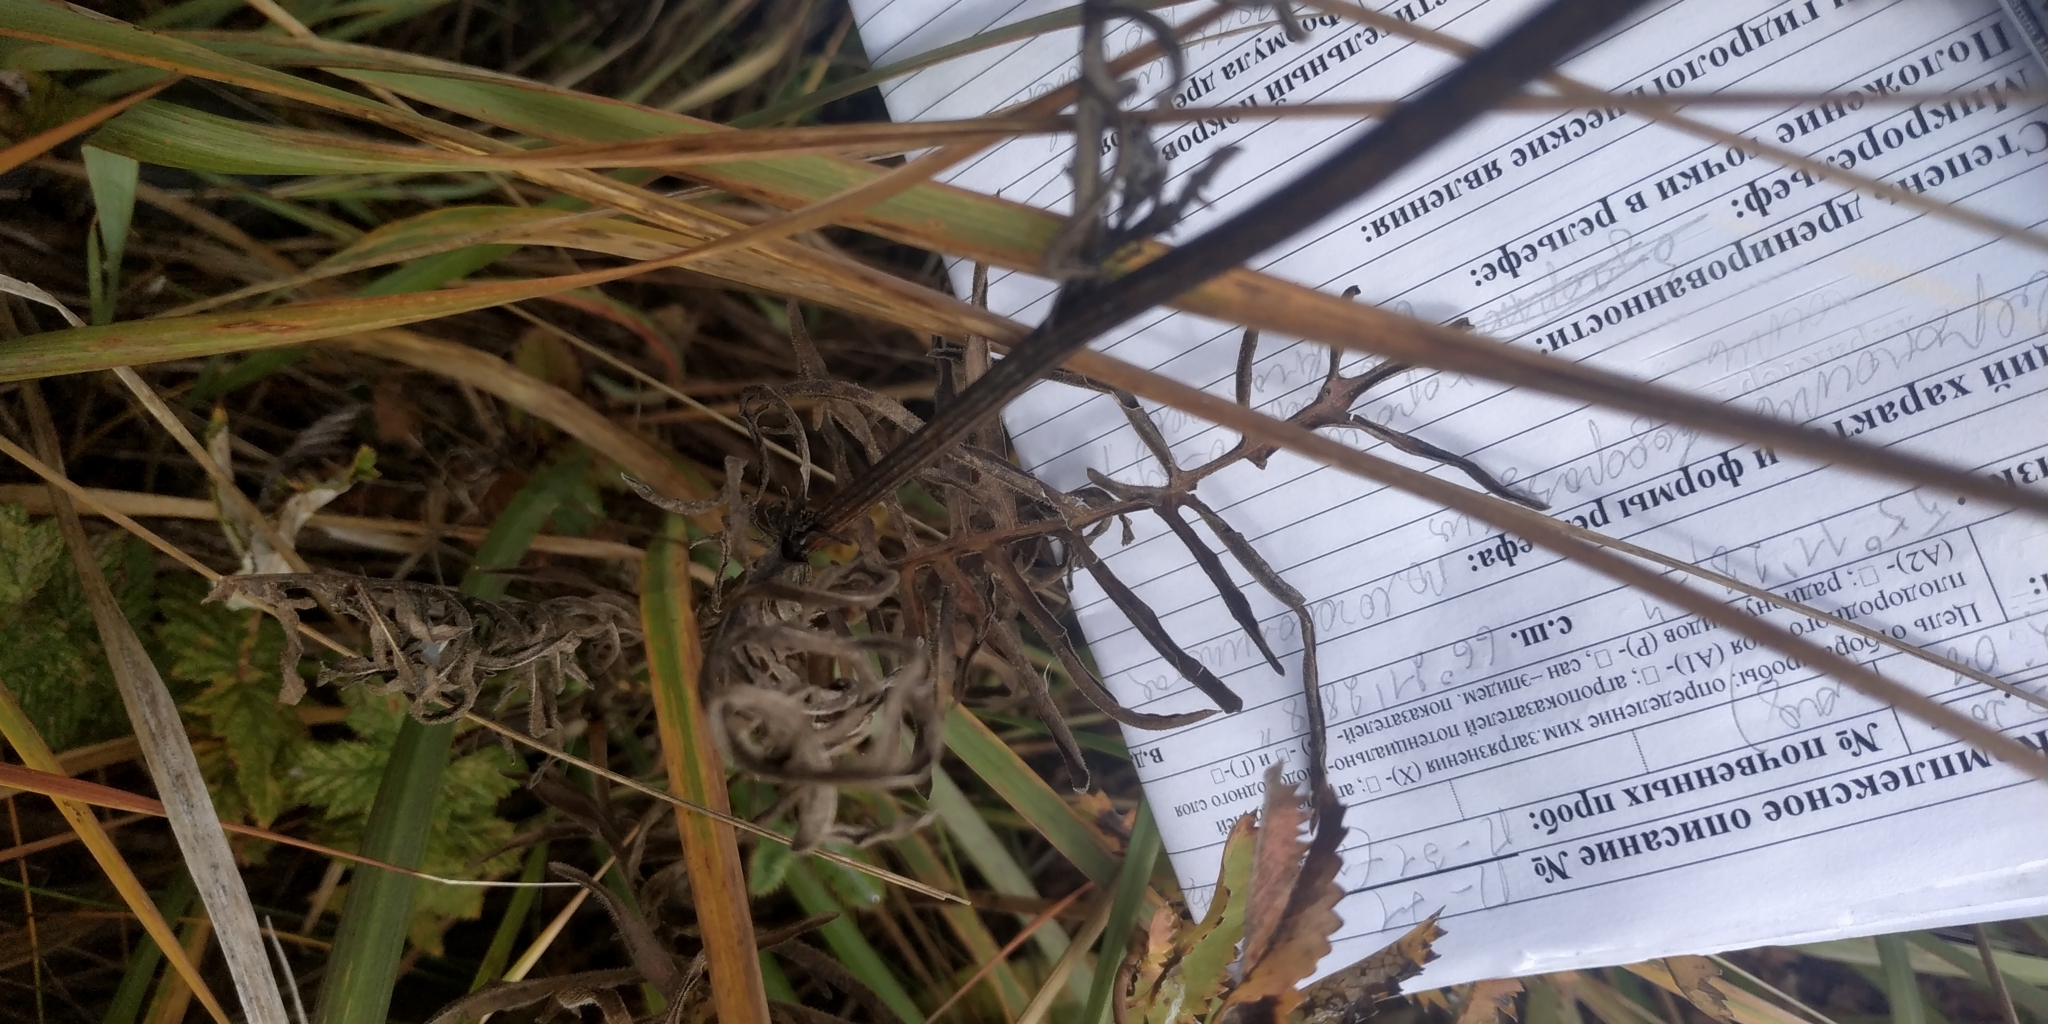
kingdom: Plantae
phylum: Tracheophyta
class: Magnoliopsida
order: Asterales
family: Asteraceae
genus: Serratula
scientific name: Serratula coronata
